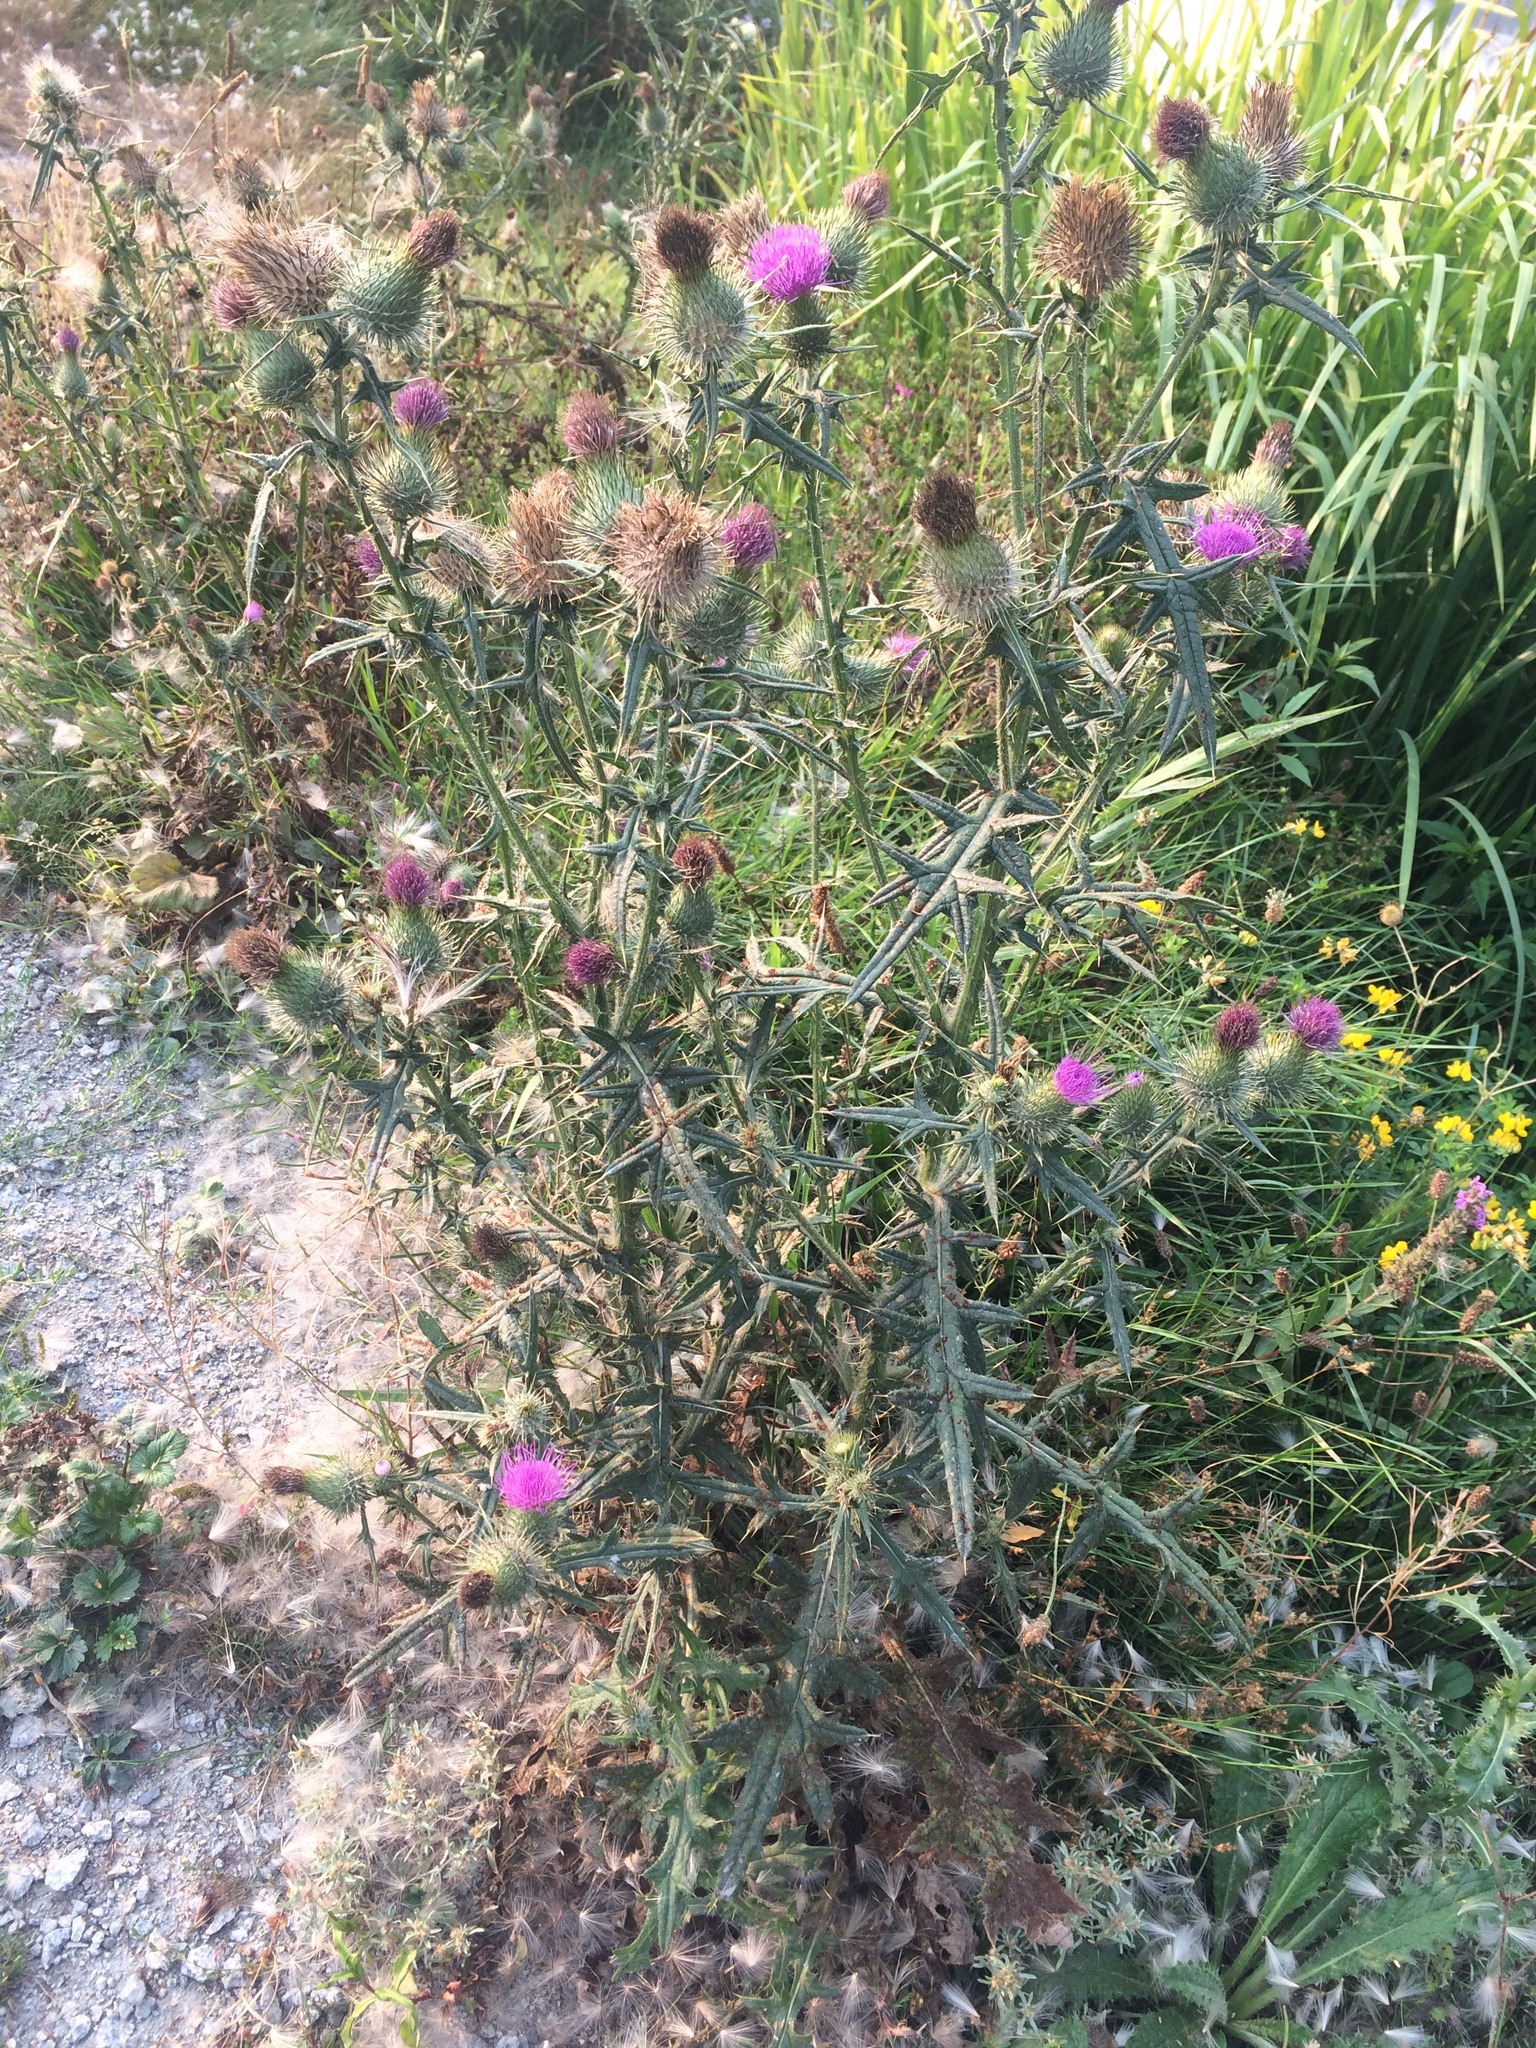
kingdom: Plantae
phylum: Tracheophyta
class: Magnoliopsida
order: Asterales
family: Asteraceae
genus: Cirsium
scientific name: Cirsium vulgare
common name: Bull thistle
